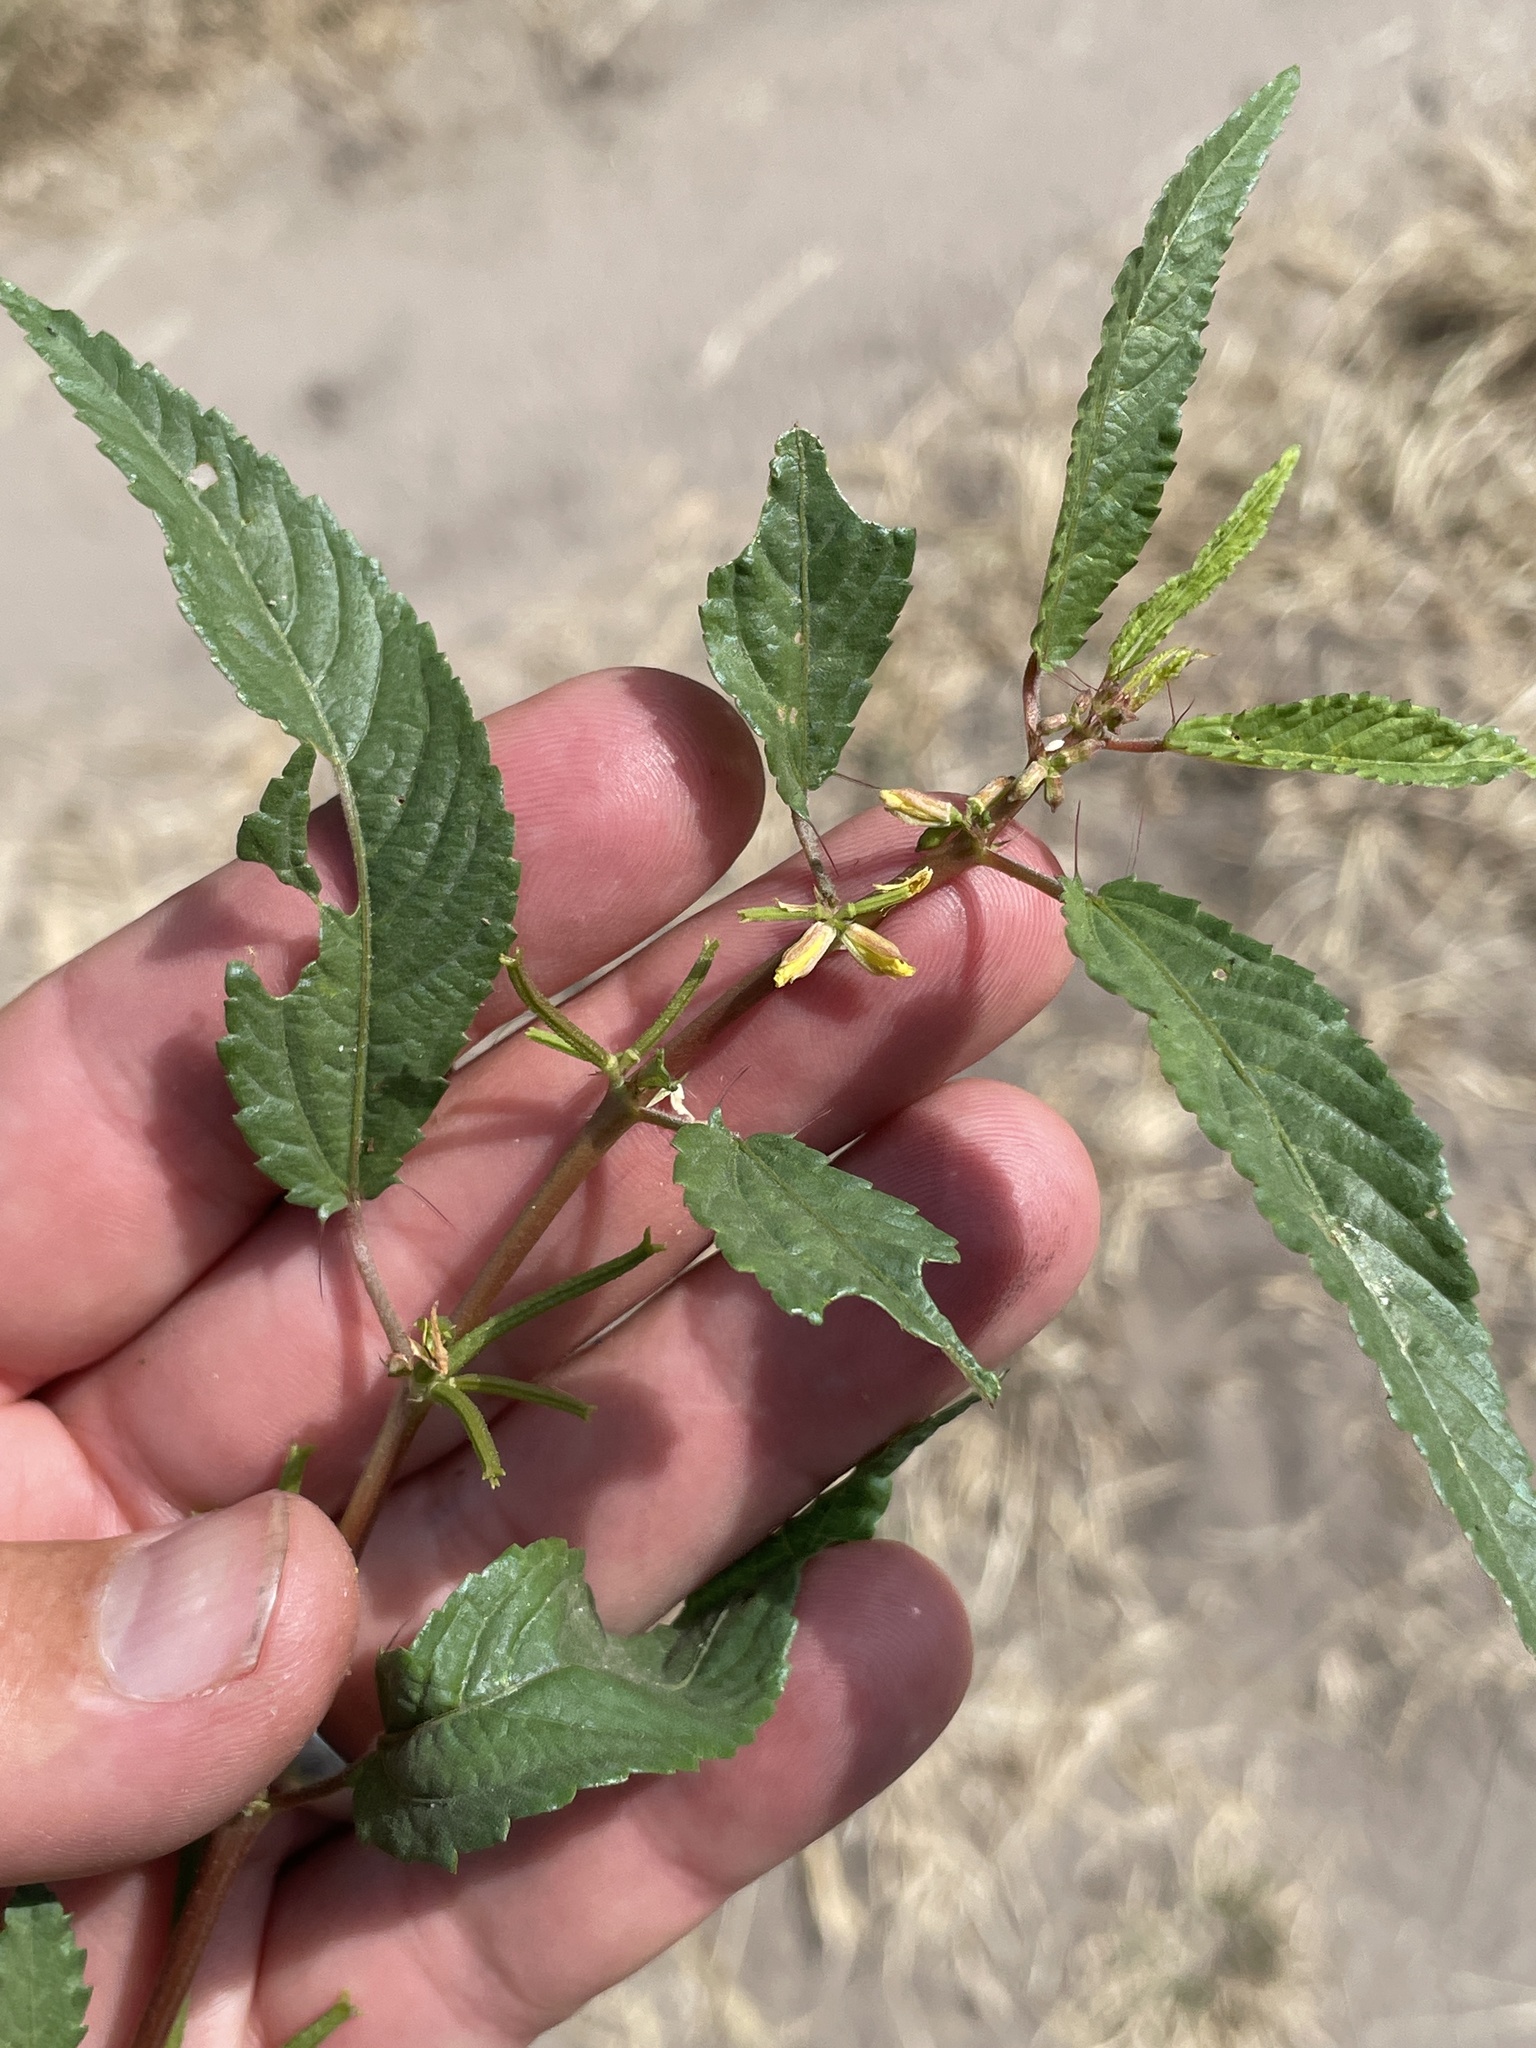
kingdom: Plantae
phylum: Tracheophyta
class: Magnoliopsida
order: Malvales
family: Malvaceae
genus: Corchorus
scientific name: Corchorus tridens
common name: Wild jute
